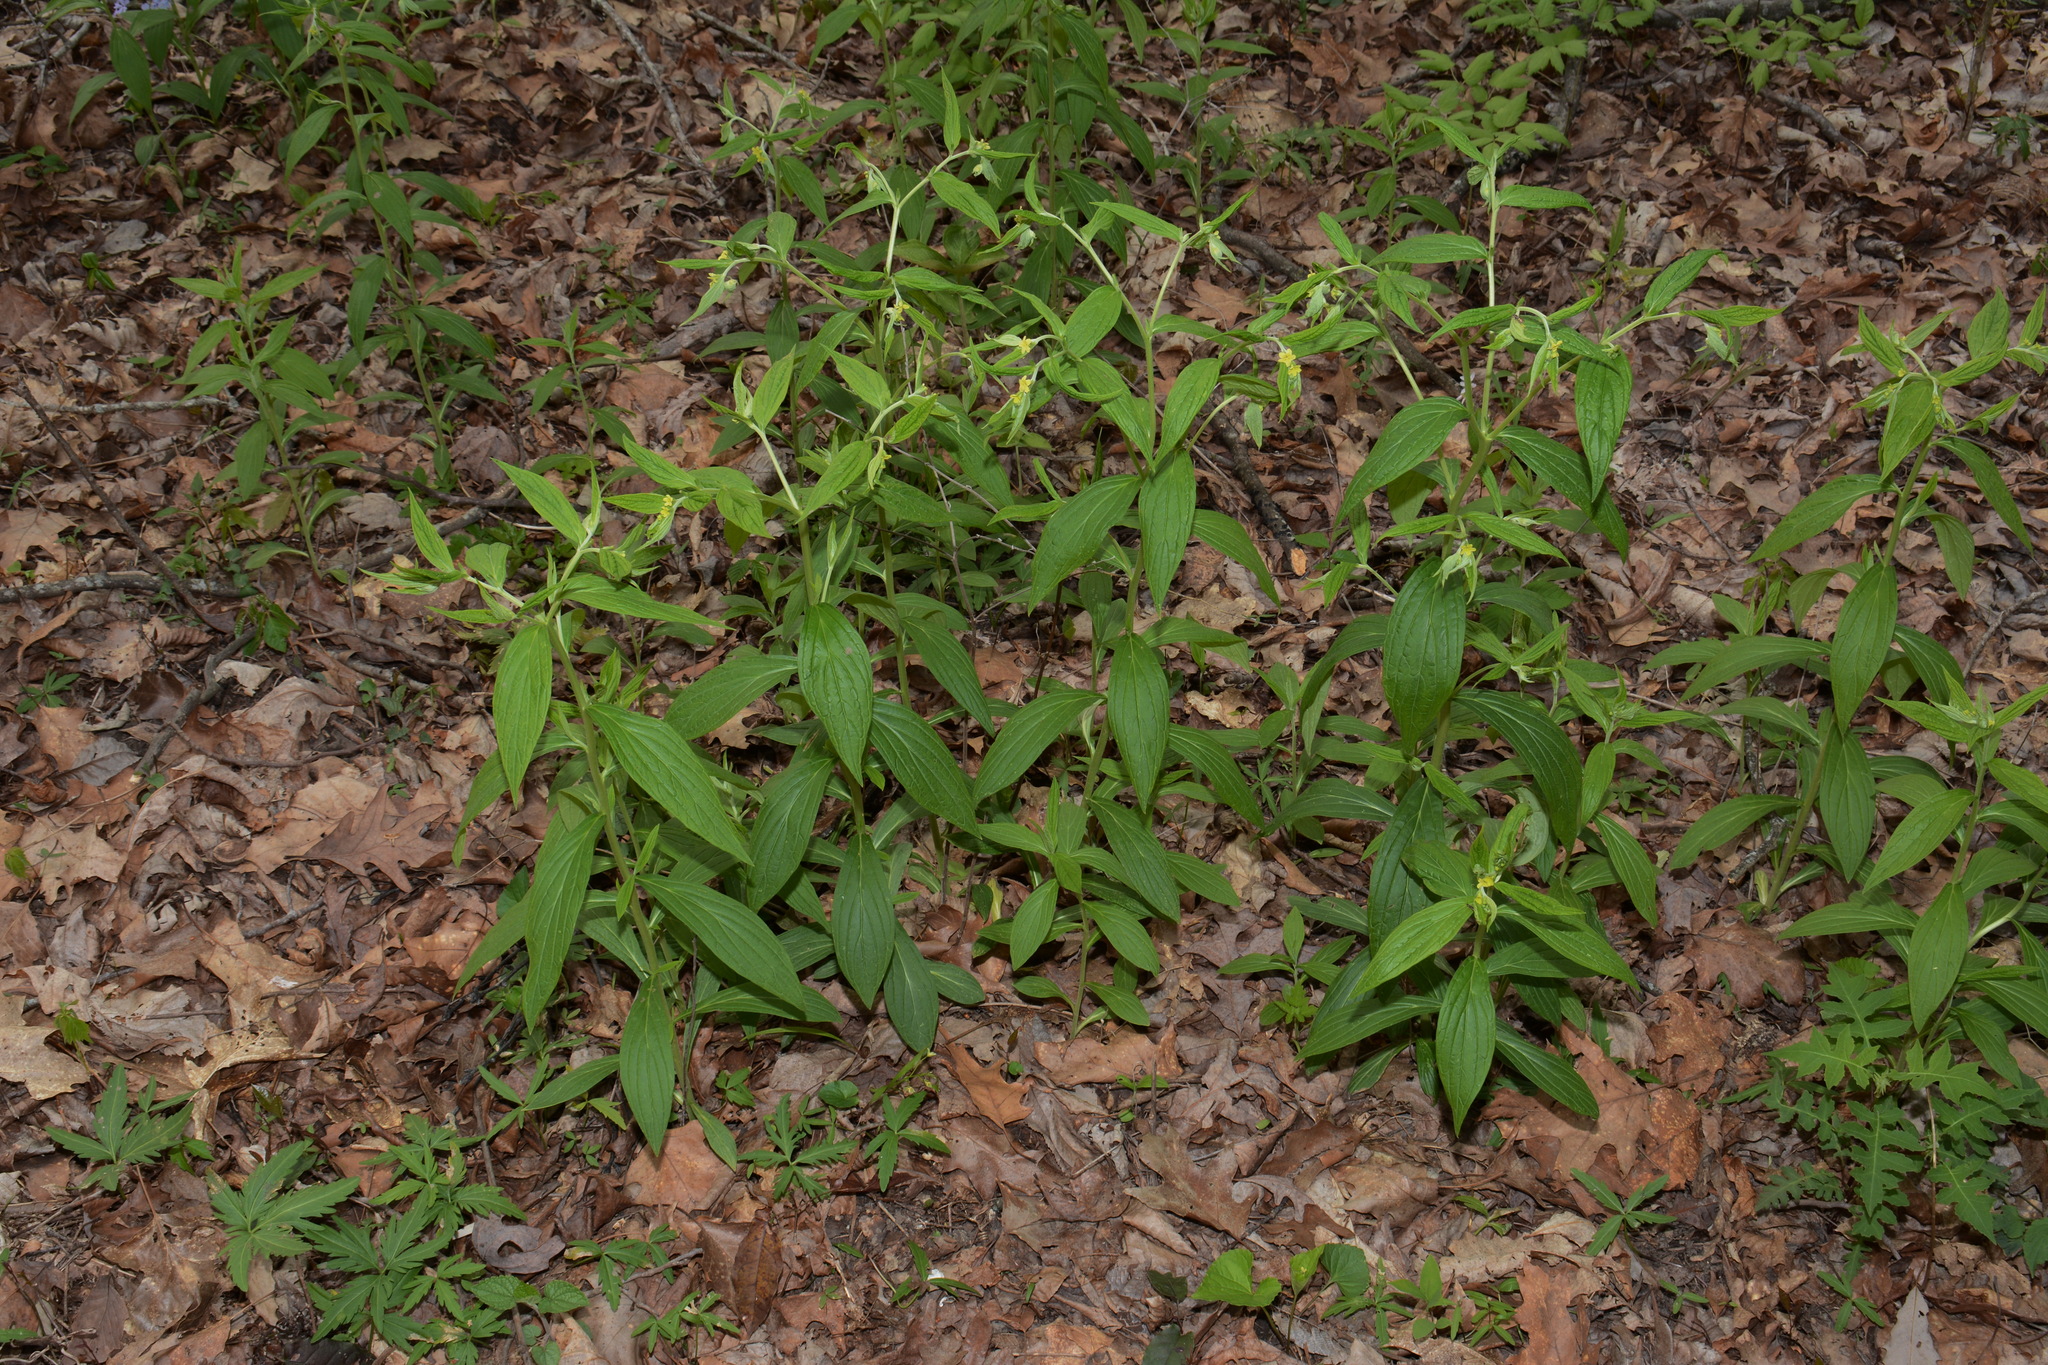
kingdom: Plantae
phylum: Tracheophyta
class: Magnoliopsida
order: Boraginales
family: Boraginaceae
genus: Lithospermum
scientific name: Lithospermum latifolium
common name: American gromwell
